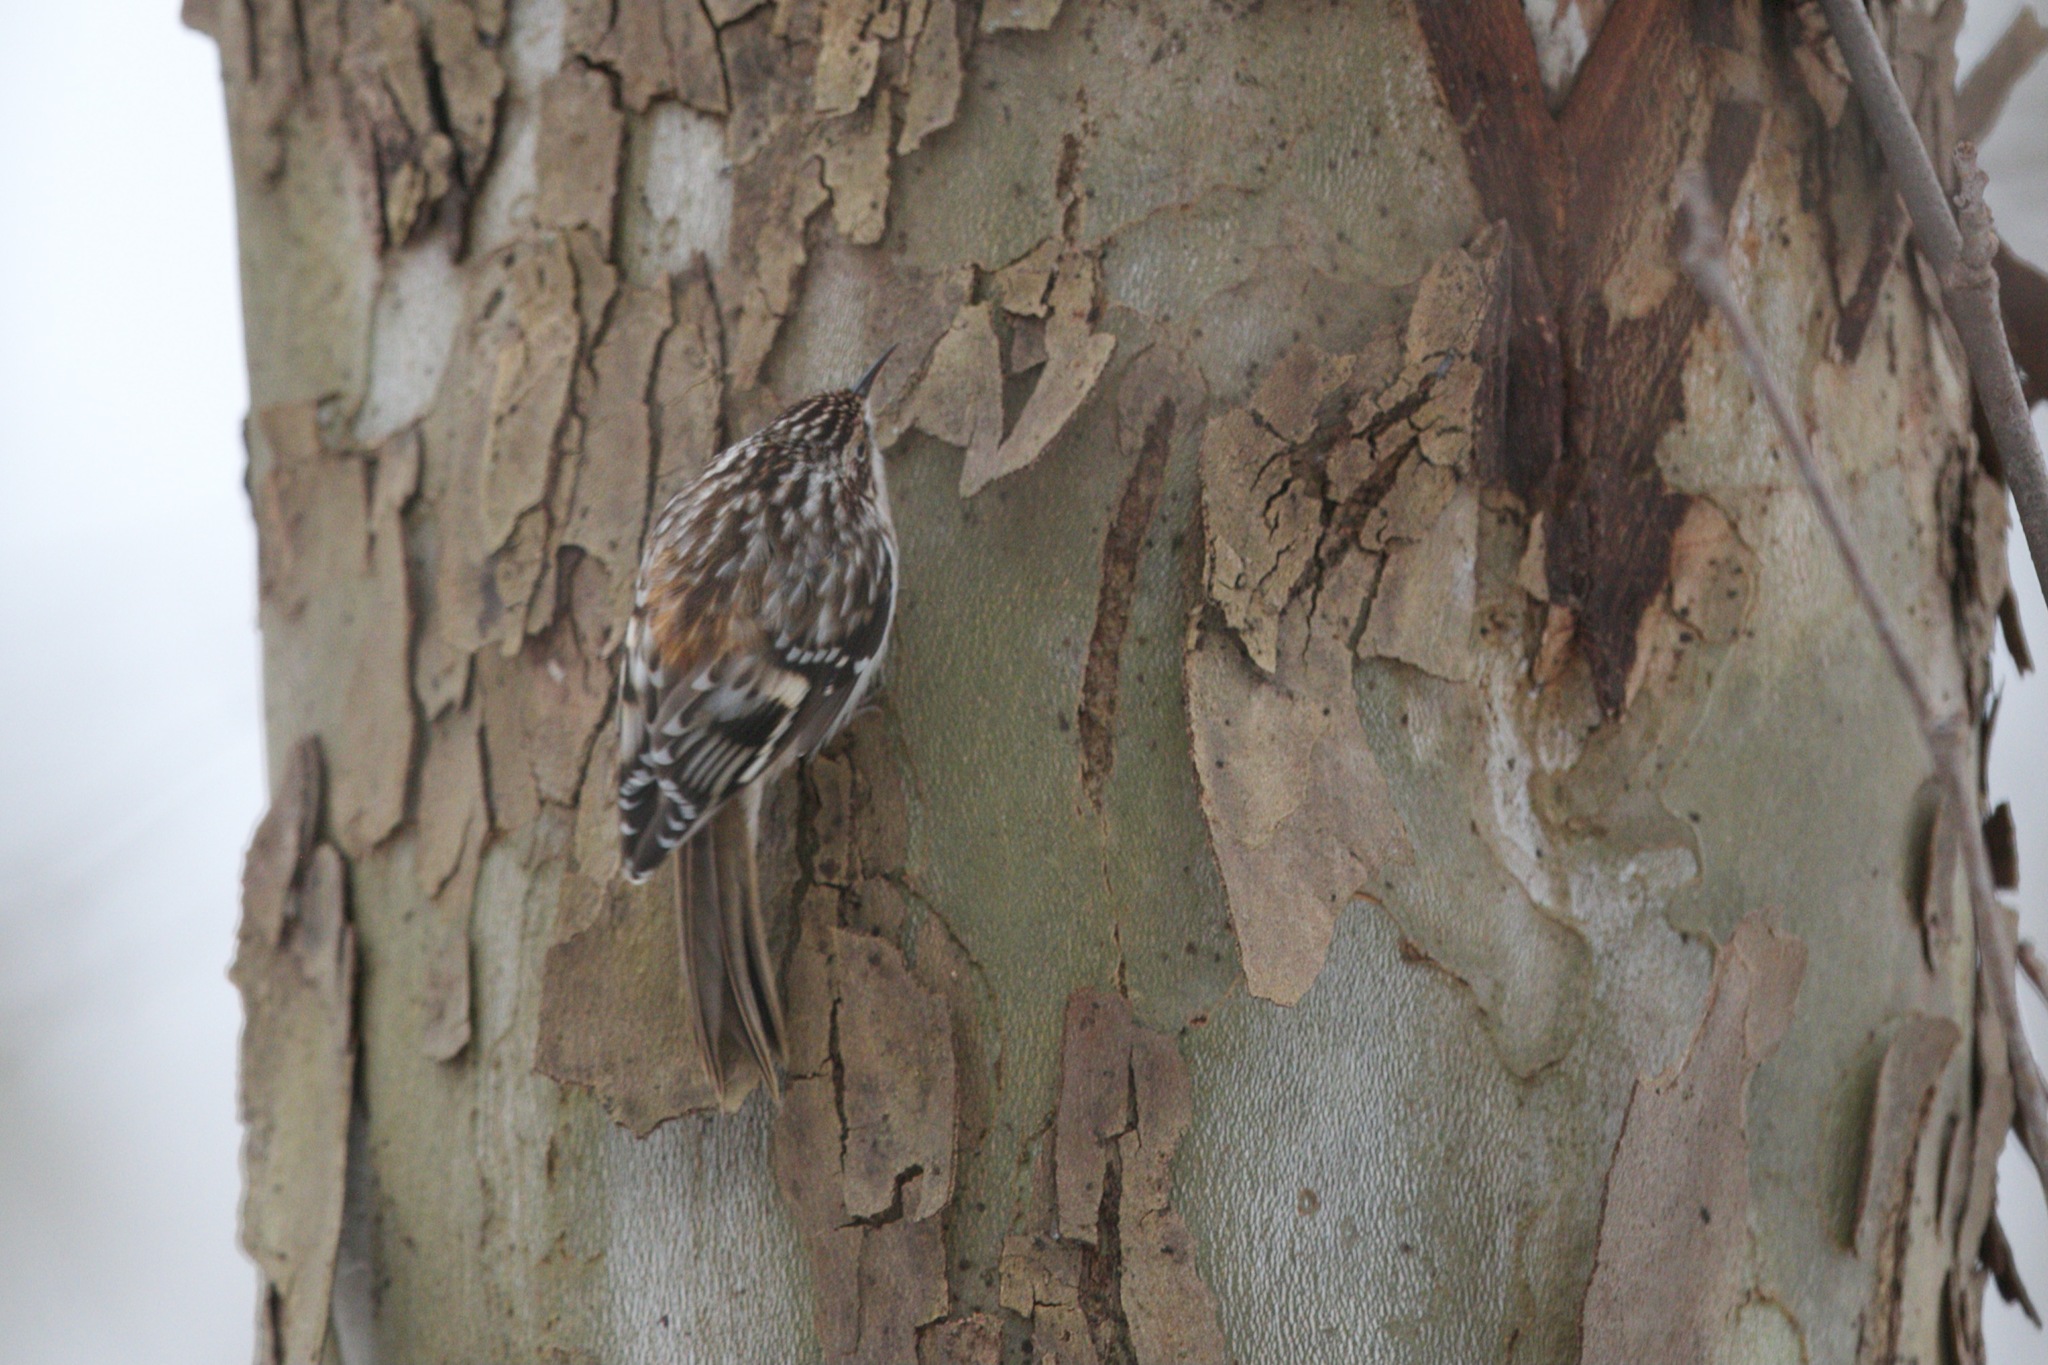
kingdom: Animalia
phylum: Chordata
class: Aves
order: Passeriformes
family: Certhiidae
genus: Certhia
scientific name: Certhia americana
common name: Brown creeper
